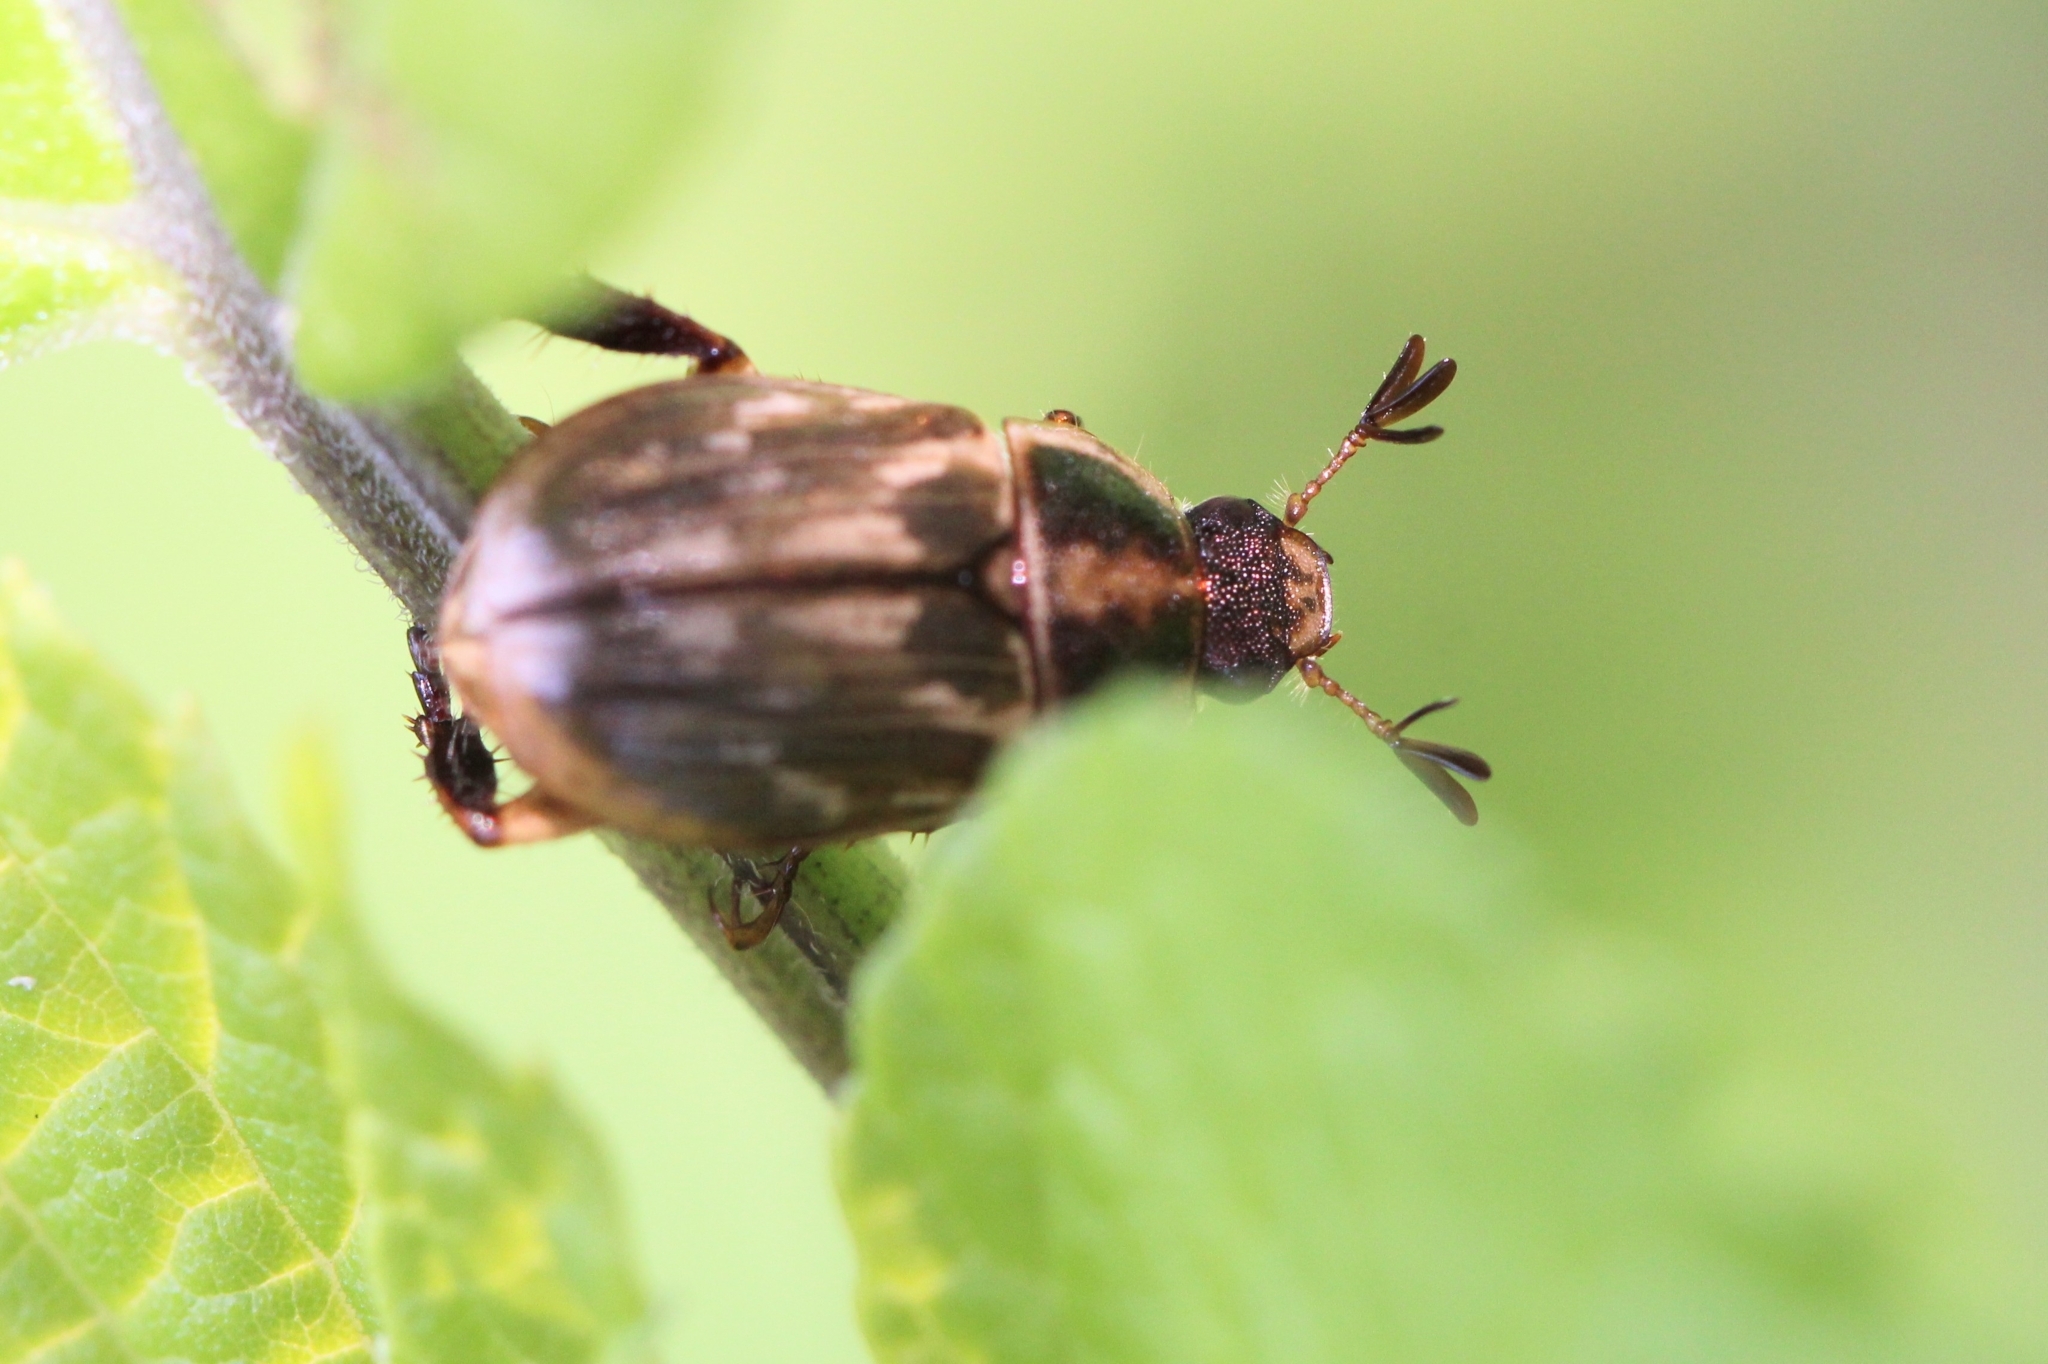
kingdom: Animalia
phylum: Arthropoda
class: Insecta
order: Coleoptera
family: Scarabaeidae
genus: Exomala
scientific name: Exomala orientalis
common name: Oriental beetle
